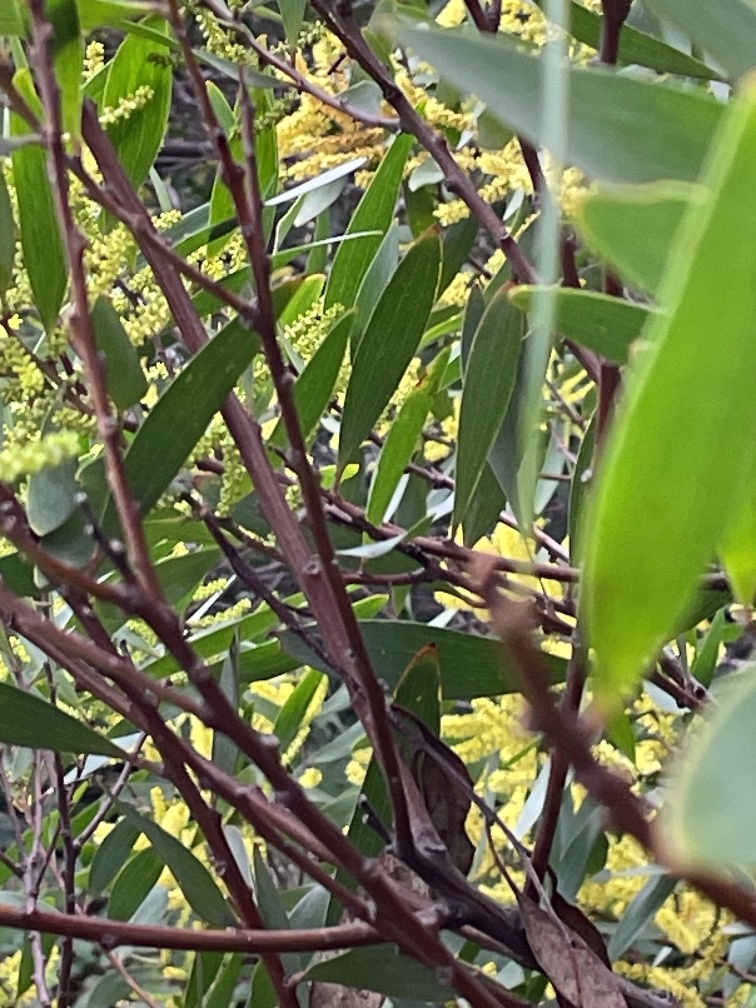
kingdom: Plantae
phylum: Tracheophyta
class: Magnoliopsida
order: Fabales
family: Fabaceae
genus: Acacia
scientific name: Acacia longifolia
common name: Sydney golden wattle
